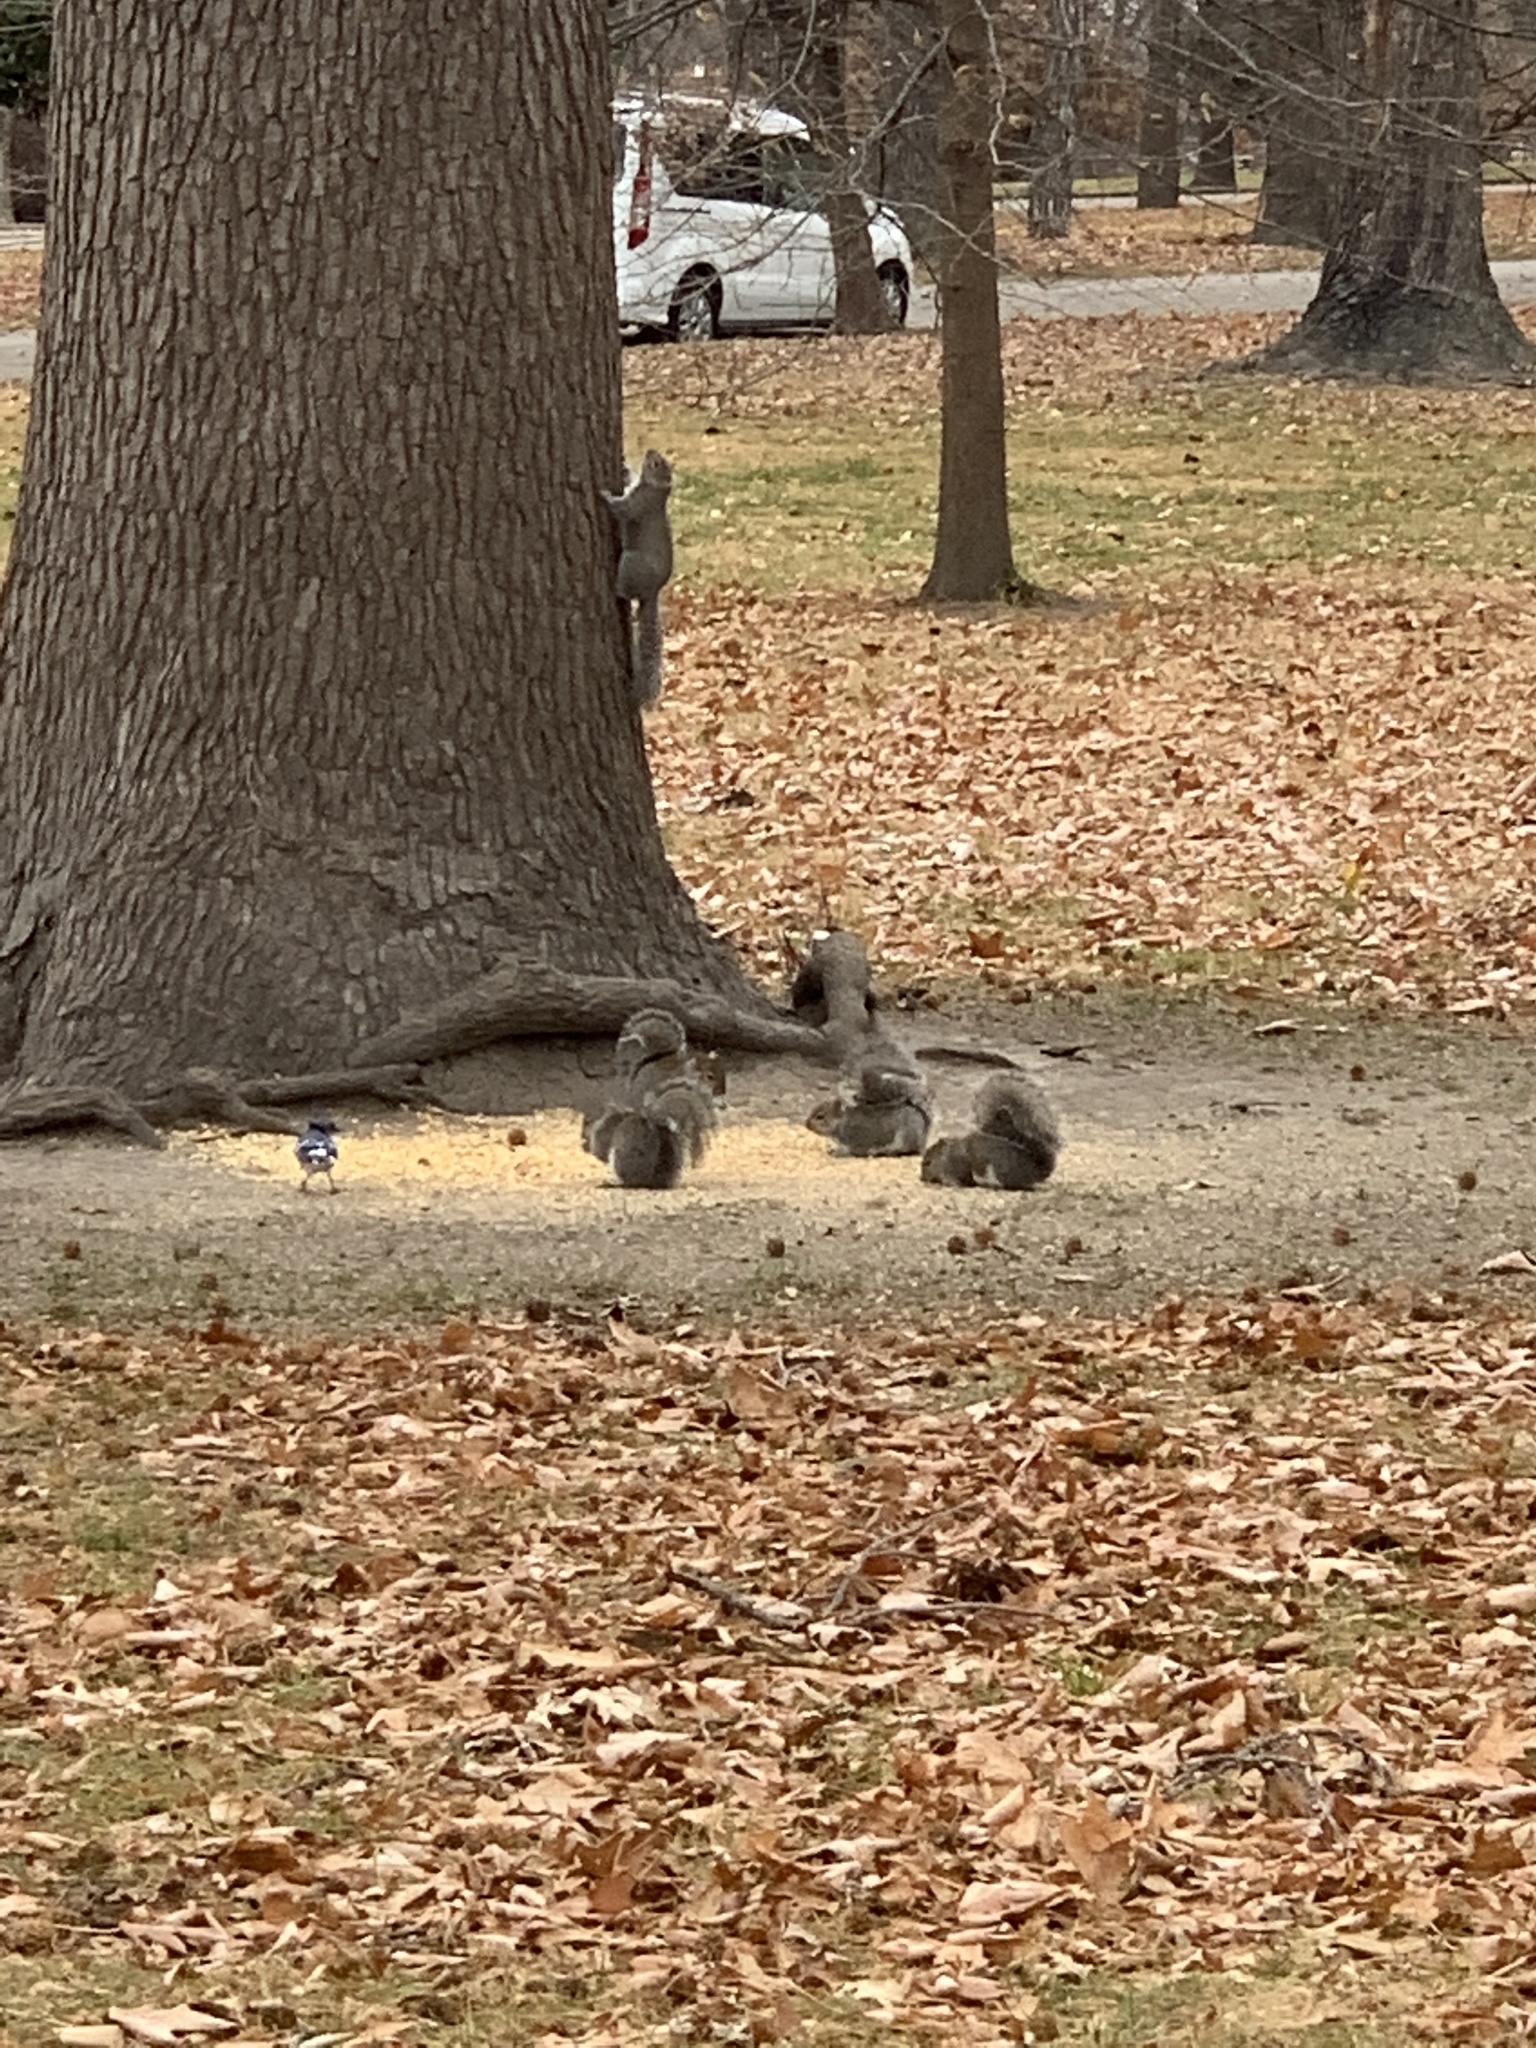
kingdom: Animalia
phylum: Chordata
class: Mammalia
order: Rodentia
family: Sciuridae
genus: Sciurus
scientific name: Sciurus carolinensis
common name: Eastern gray squirrel
